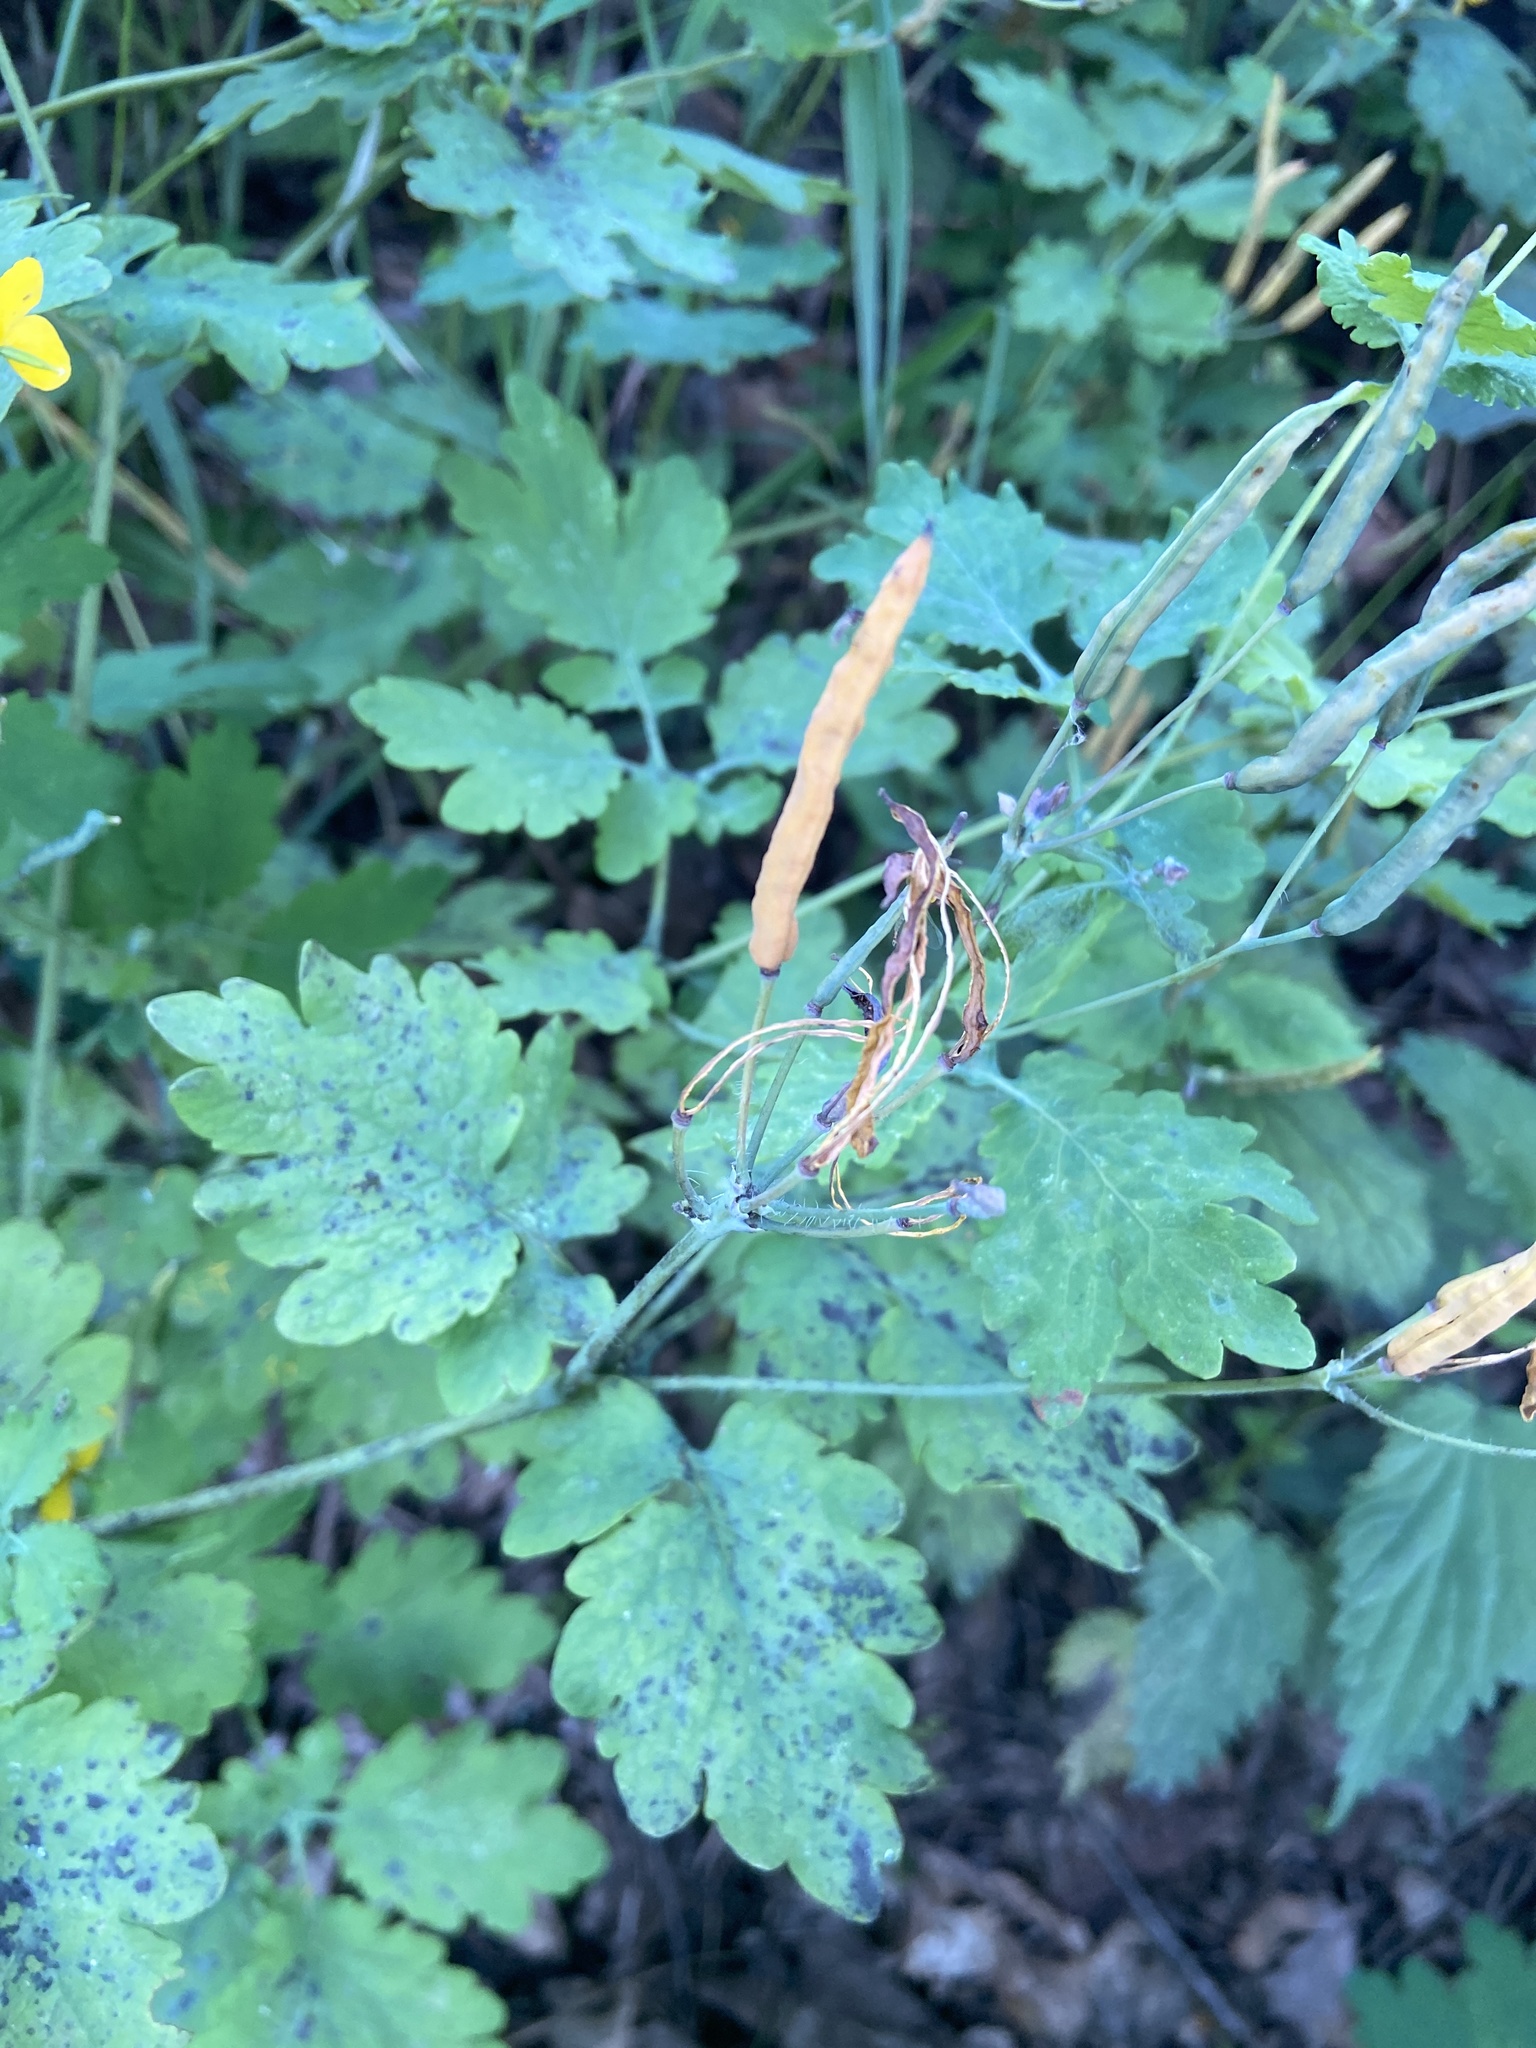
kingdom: Plantae
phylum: Tracheophyta
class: Magnoliopsida
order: Ranunculales
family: Papaveraceae
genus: Chelidonium
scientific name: Chelidonium majus
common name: Greater celandine
